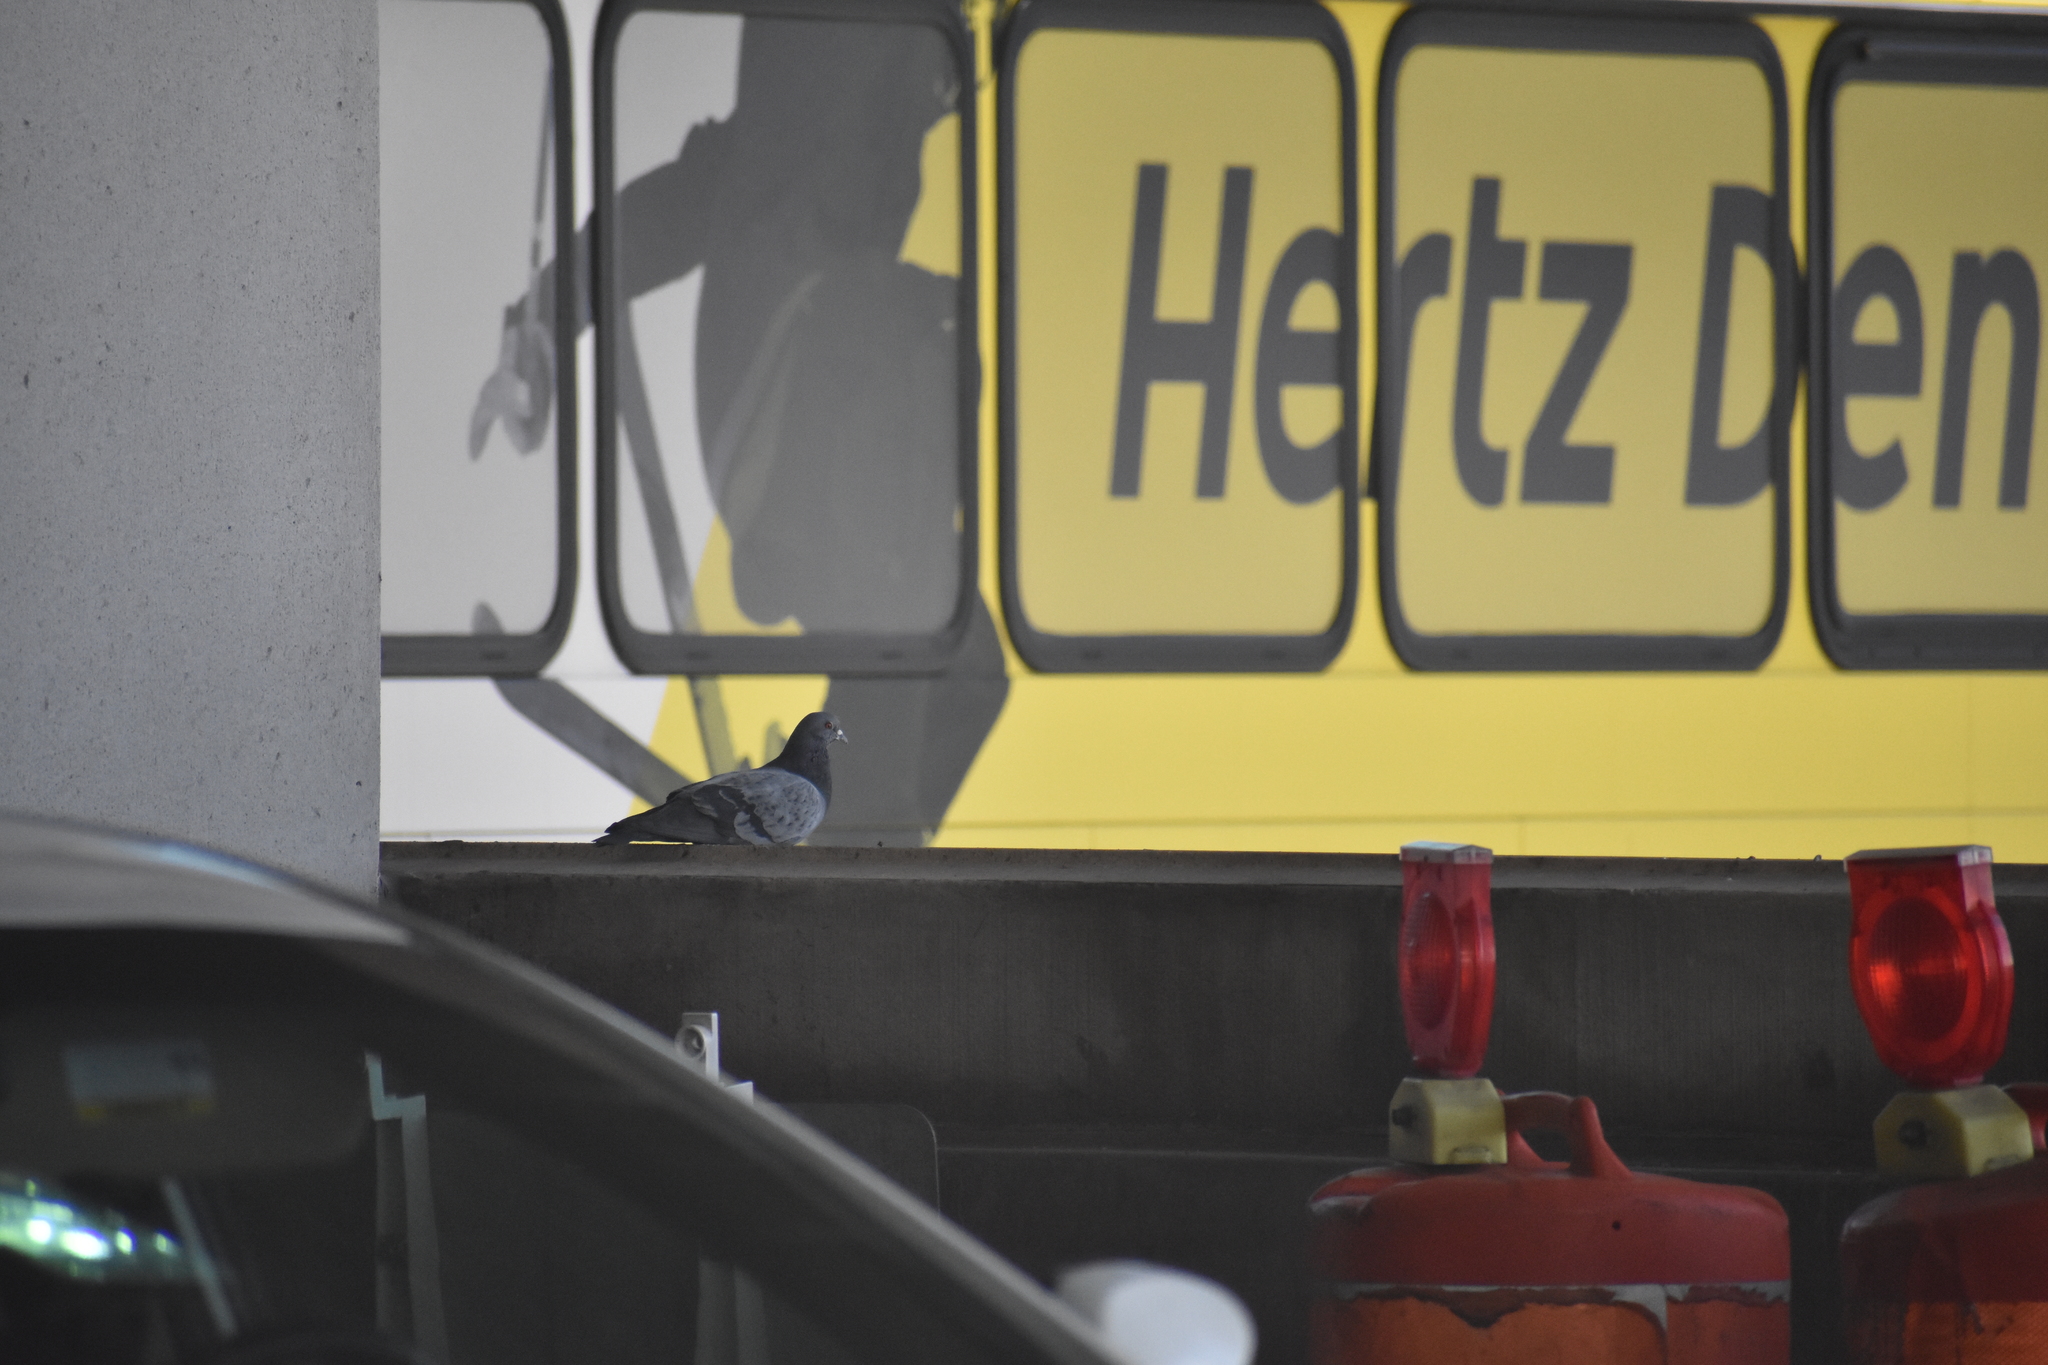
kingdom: Animalia
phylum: Chordata
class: Aves
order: Columbiformes
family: Columbidae
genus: Columba
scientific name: Columba livia
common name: Rock pigeon
